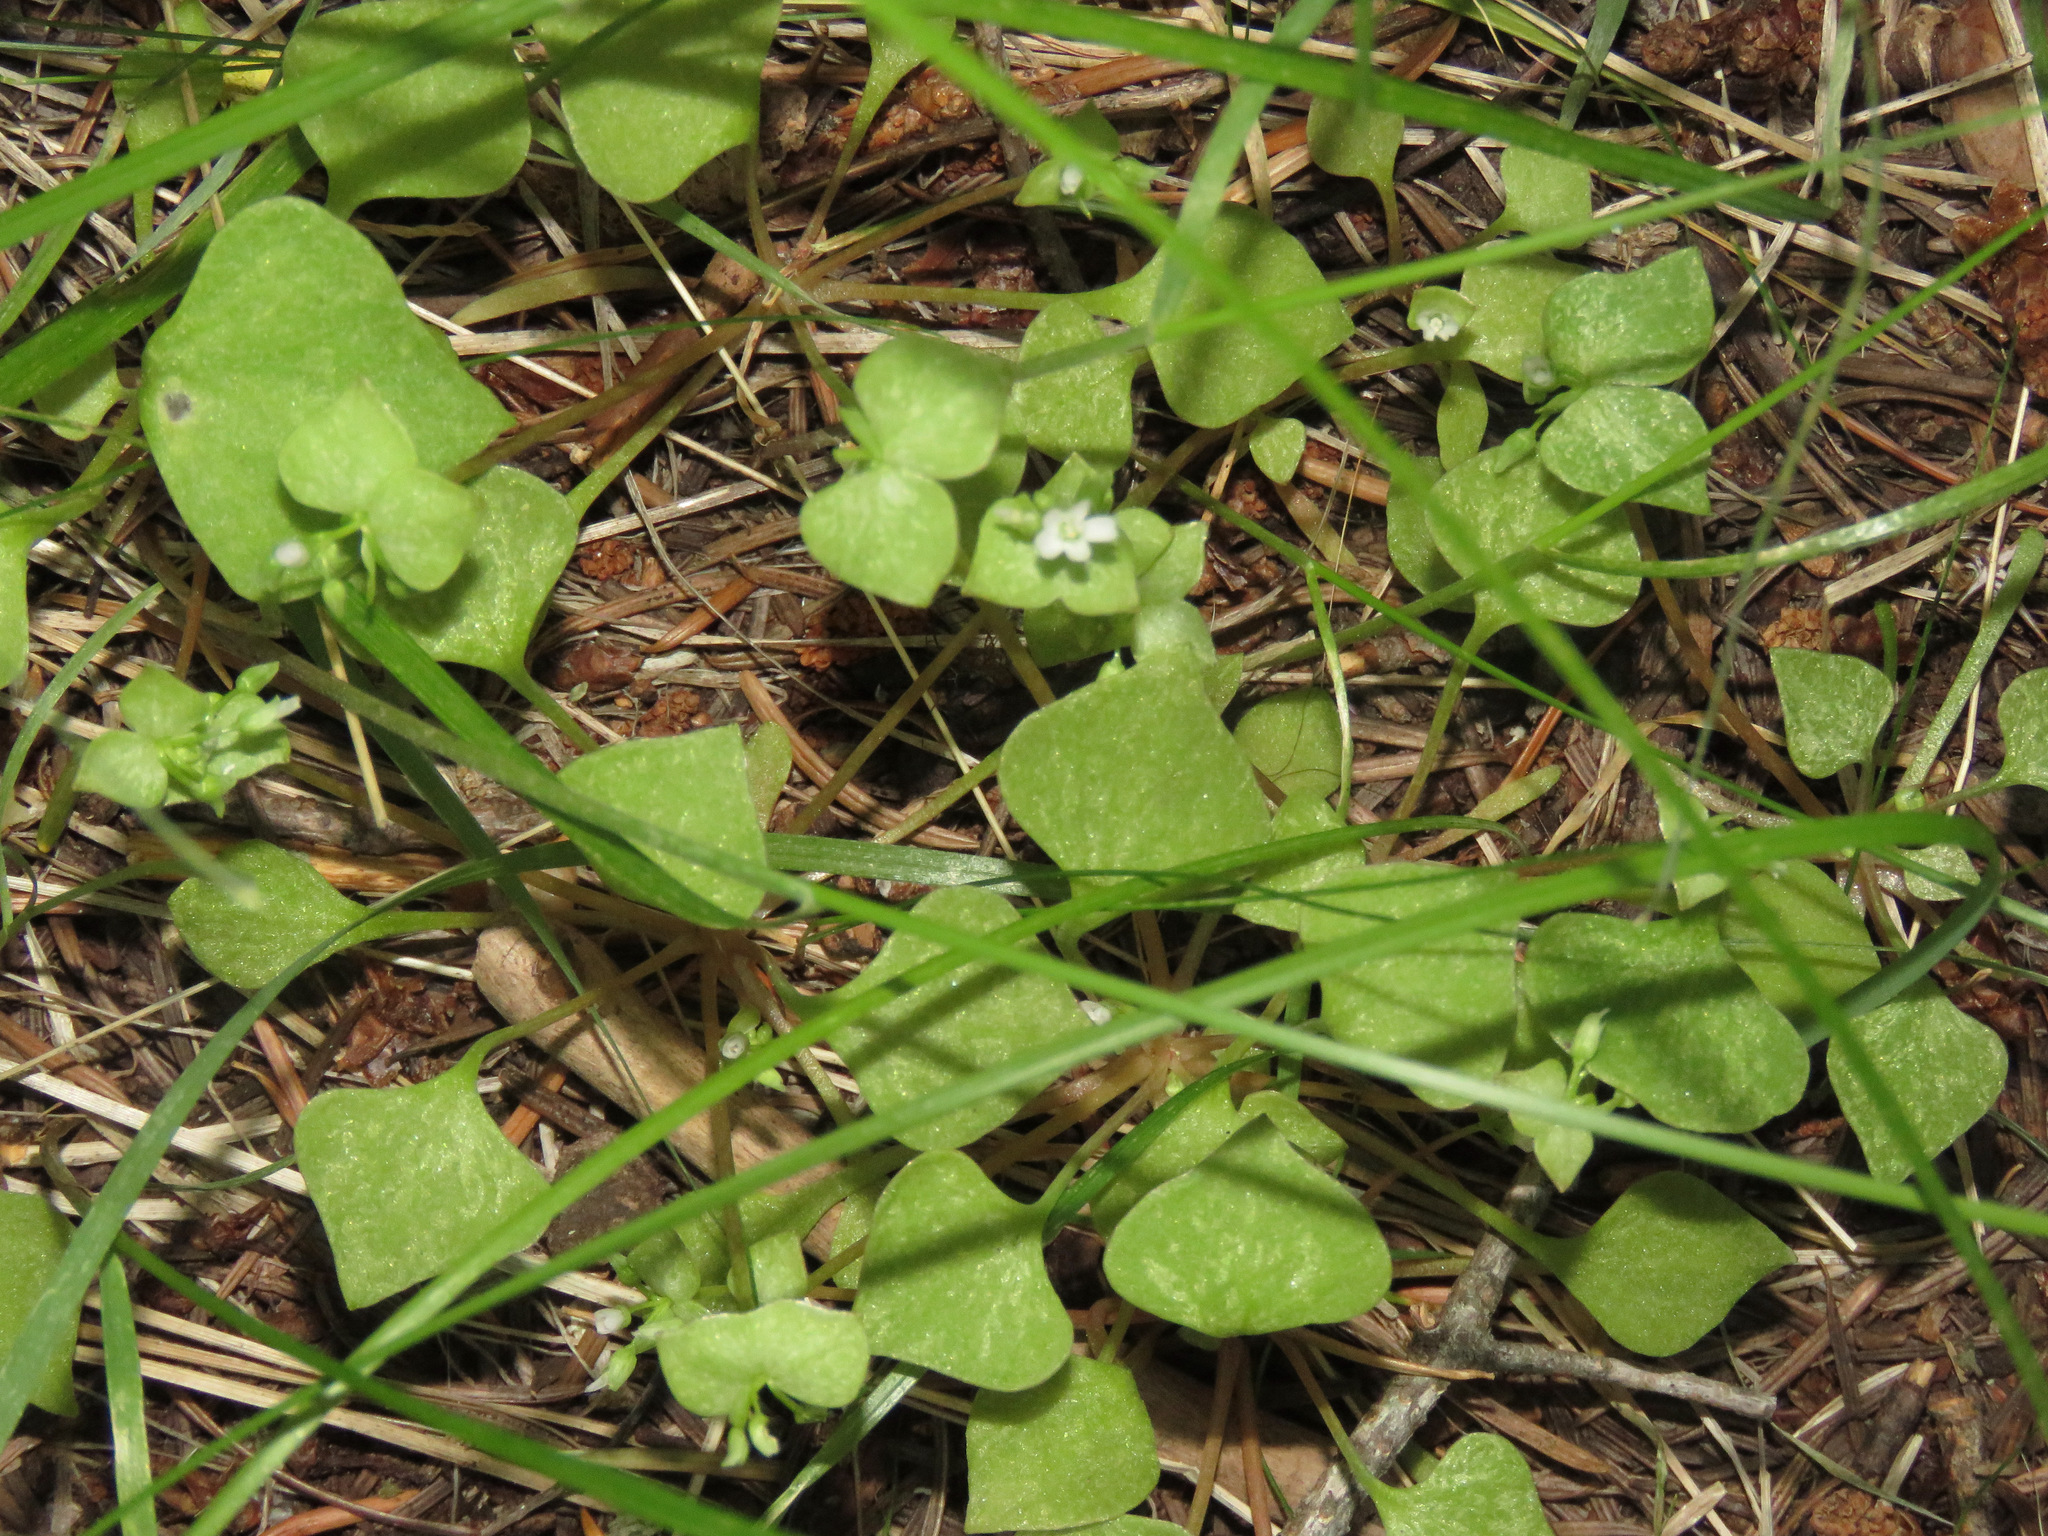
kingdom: Plantae
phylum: Tracheophyta
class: Magnoliopsida
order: Caryophyllales
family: Montiaceae
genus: Claytonia
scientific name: Claytonia rubra
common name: Erubescent miner's-lettuce
